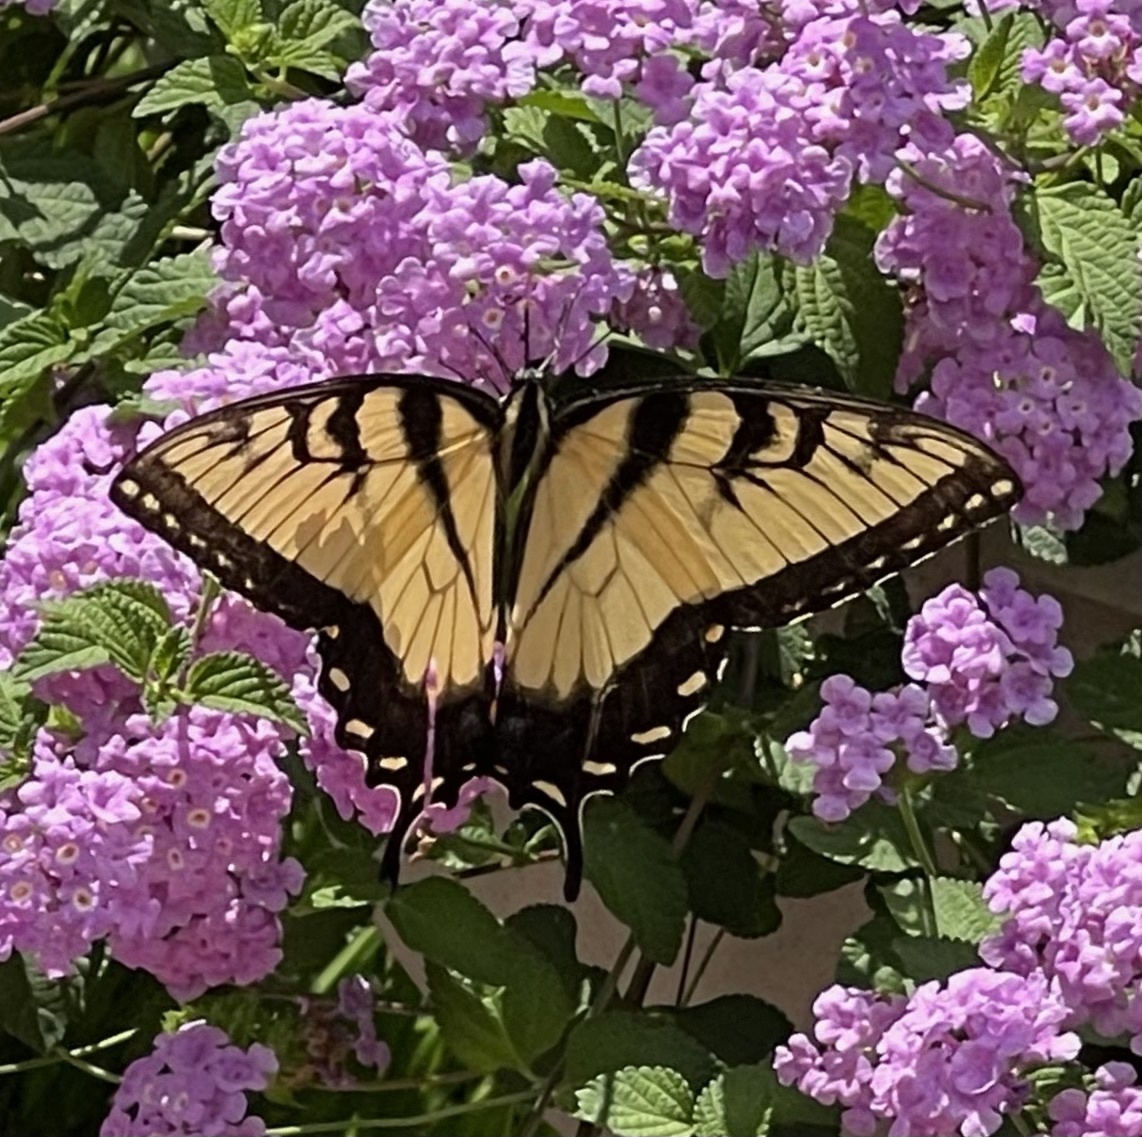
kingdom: Animalia
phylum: Arthropoda
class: Insecta
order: Lepidoptera
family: Papilionidae
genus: Papilio
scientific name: Papilio glaucus
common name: Tiger swallowtail
